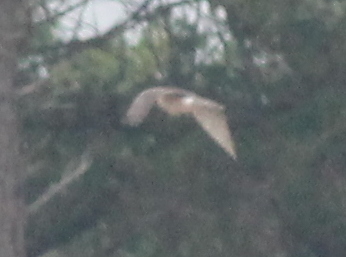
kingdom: Animalia
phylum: Chordata
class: Aves
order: Accipitriformes
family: Accipitridae
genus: Accipiter
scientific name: Accipiter cooperii
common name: Cooper's hawk
